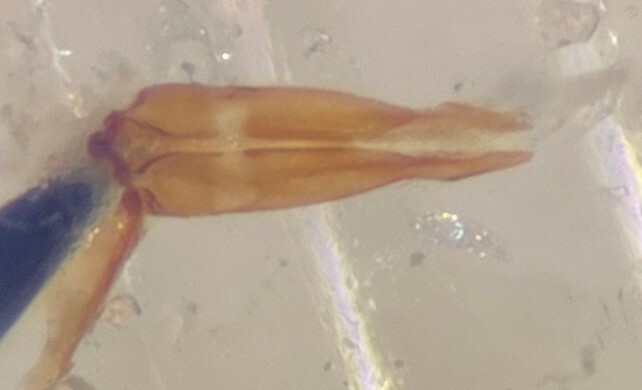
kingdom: Animalia
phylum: Arthropoda
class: Insecta
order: Coleoptera
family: Hydrochidae
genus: Hydrochus
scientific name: Hydrochus vagus
